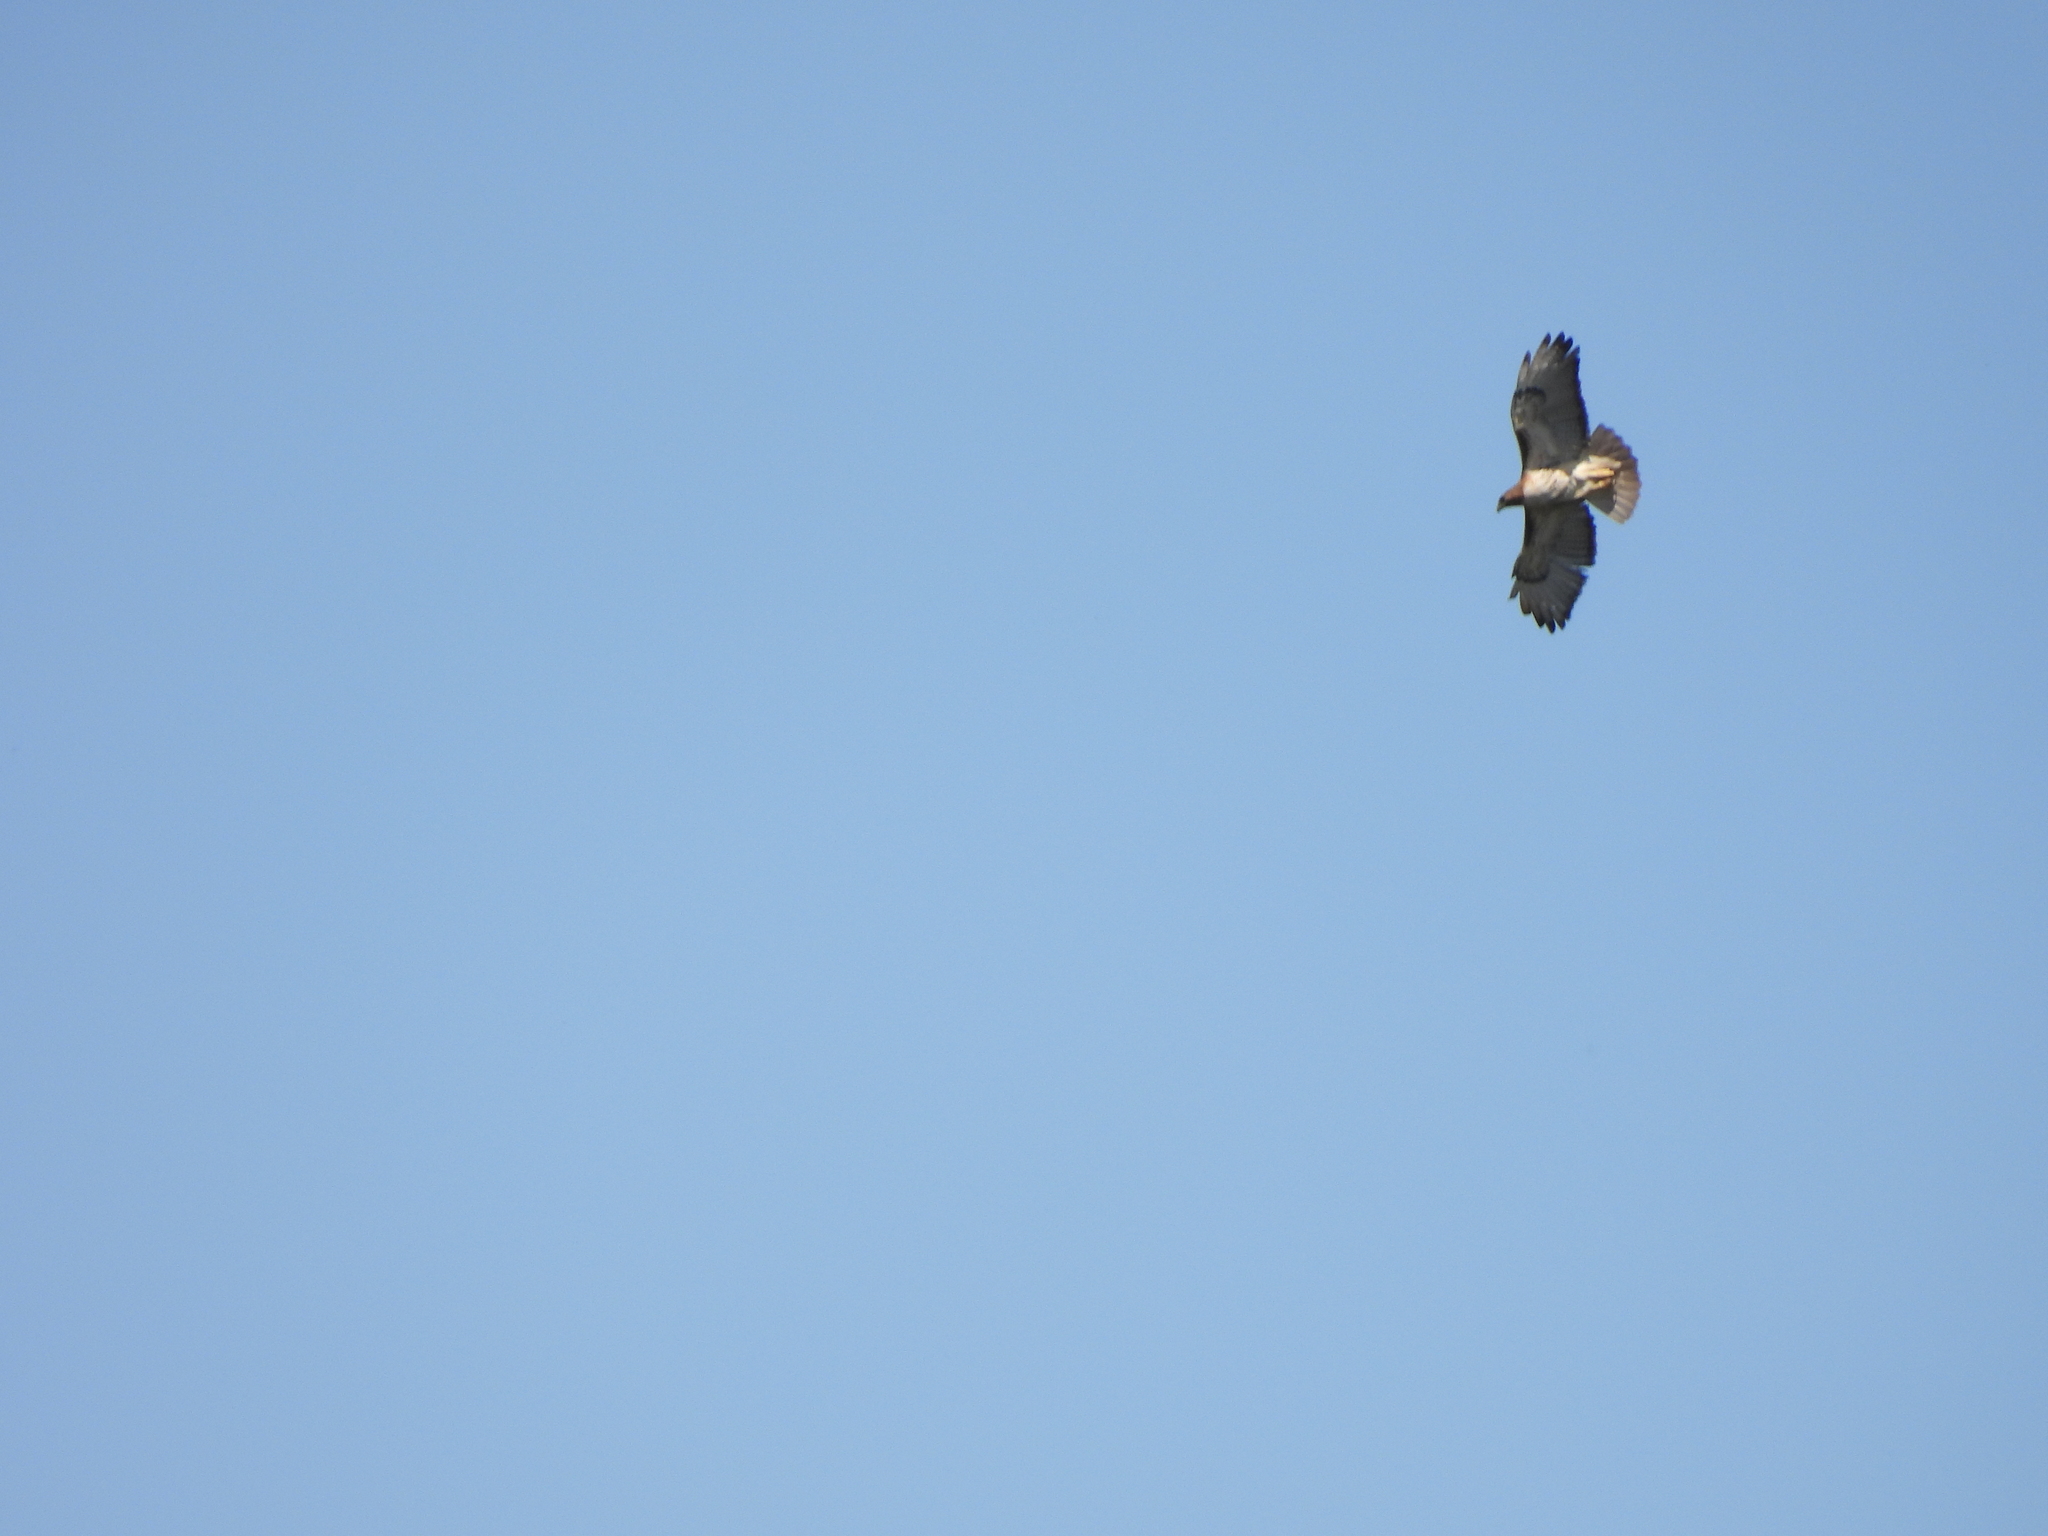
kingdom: Animalia
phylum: Chordata
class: Aves
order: Accipitriformes
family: Accipitridae
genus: Buteo
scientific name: Buteo jamaicensis
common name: Red-tailed hawk
